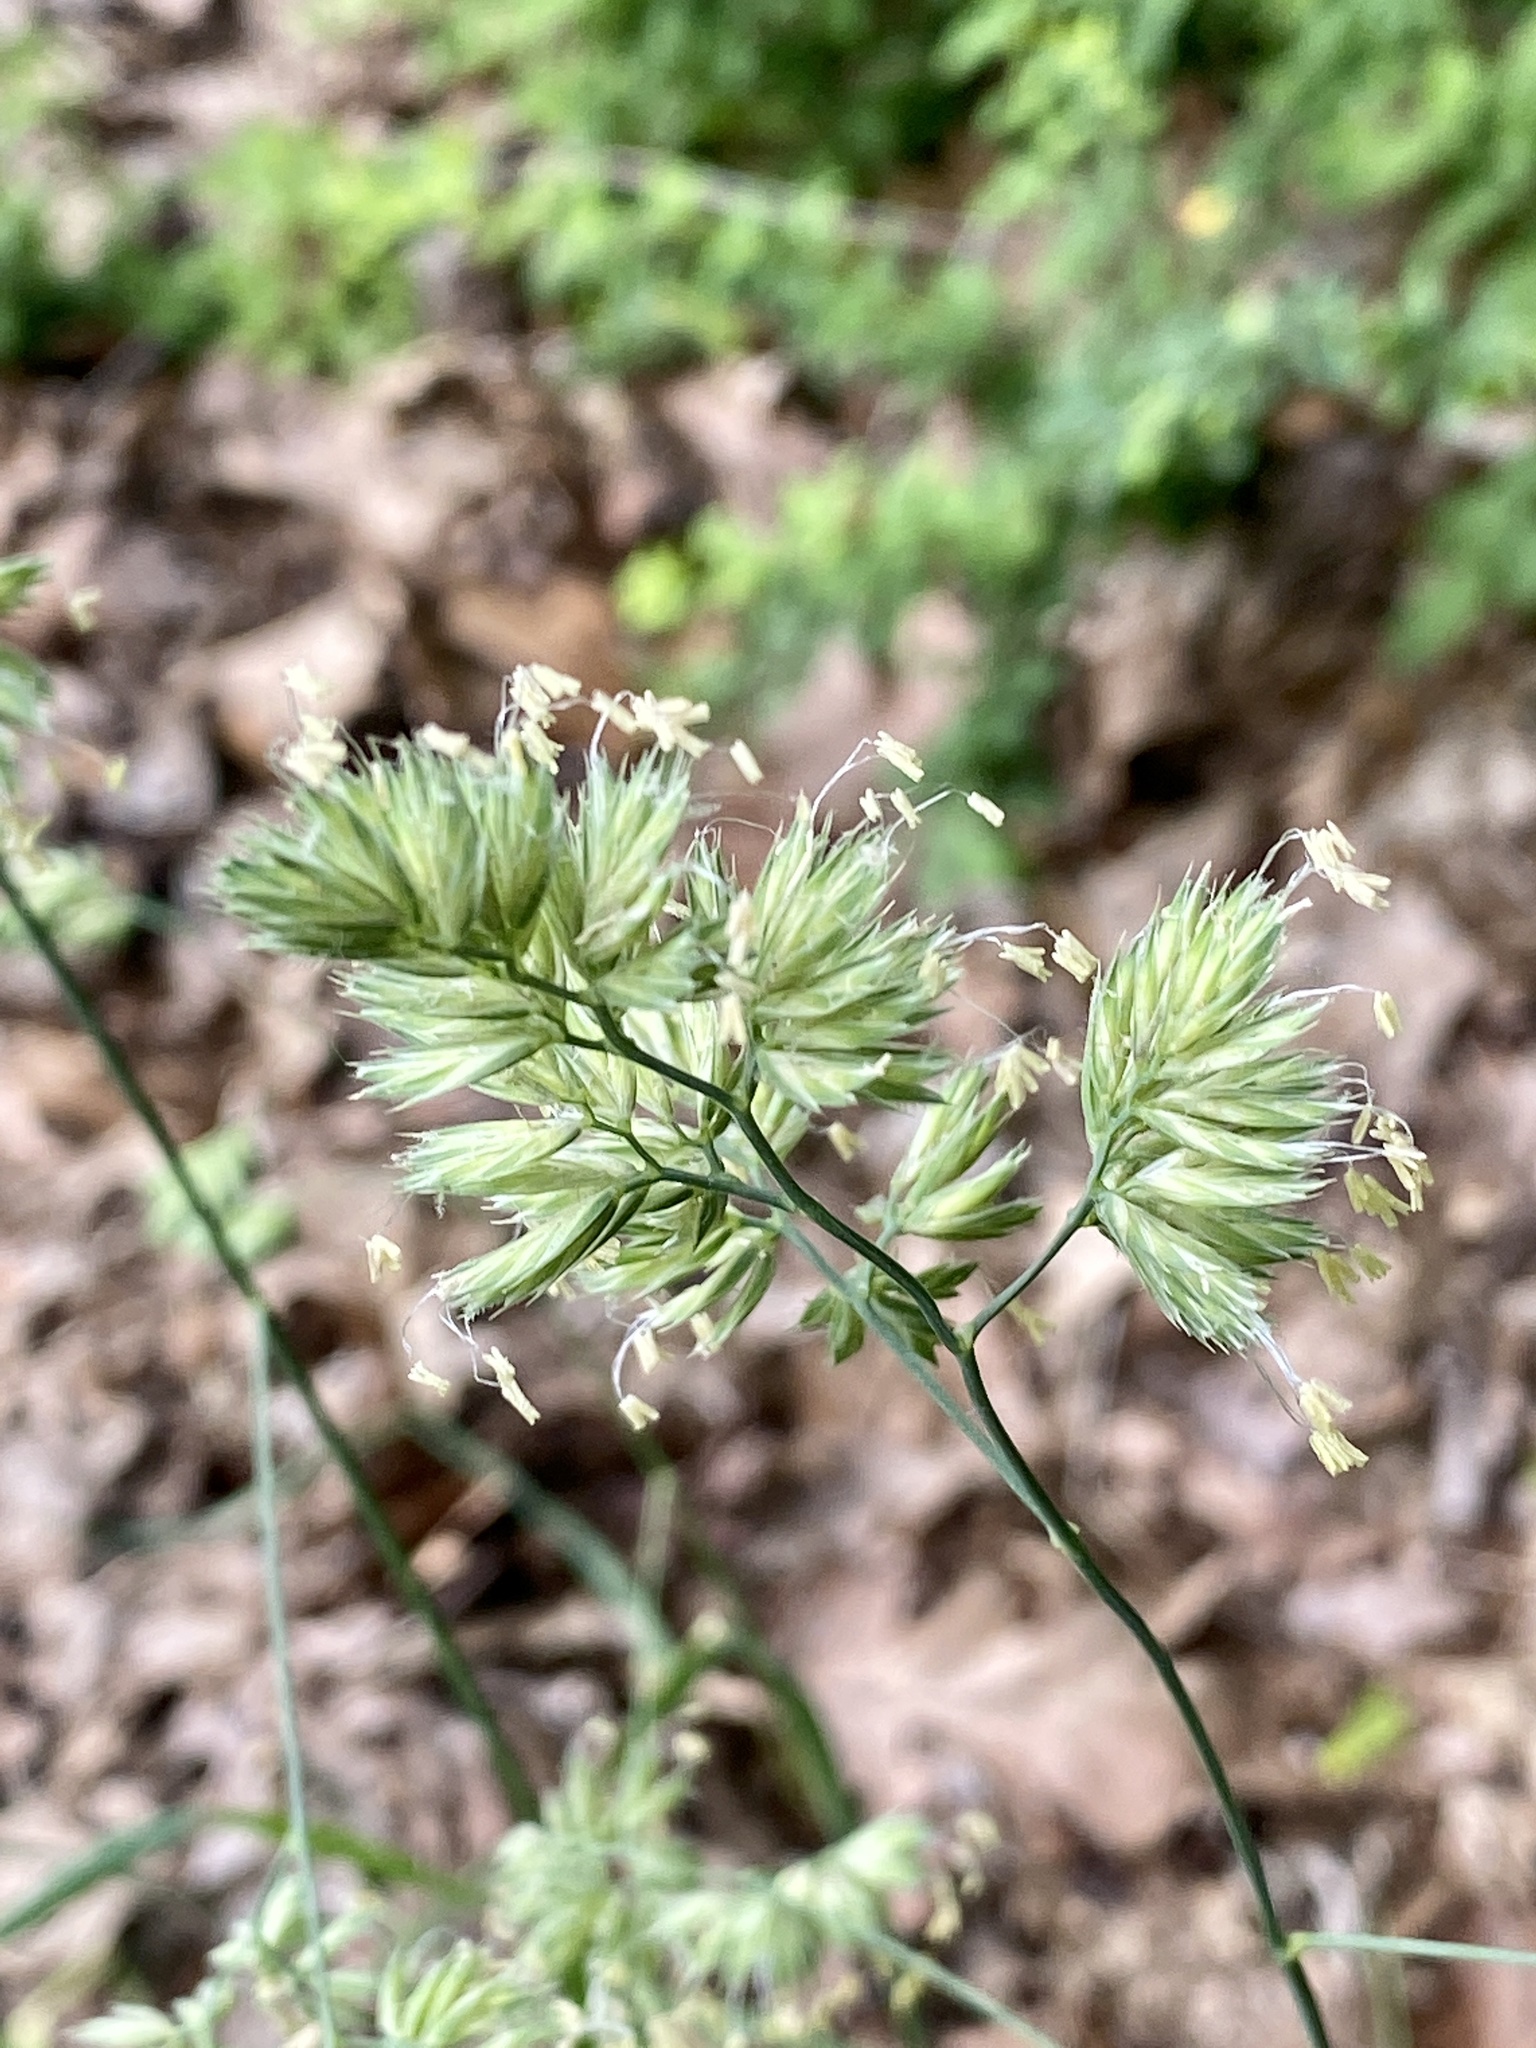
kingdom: Plantae
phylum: Tracheophyta
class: Liliopsida
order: Poales
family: Poaceae
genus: Dactylis
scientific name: Dactylis glomerata
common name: Orchardgrass
